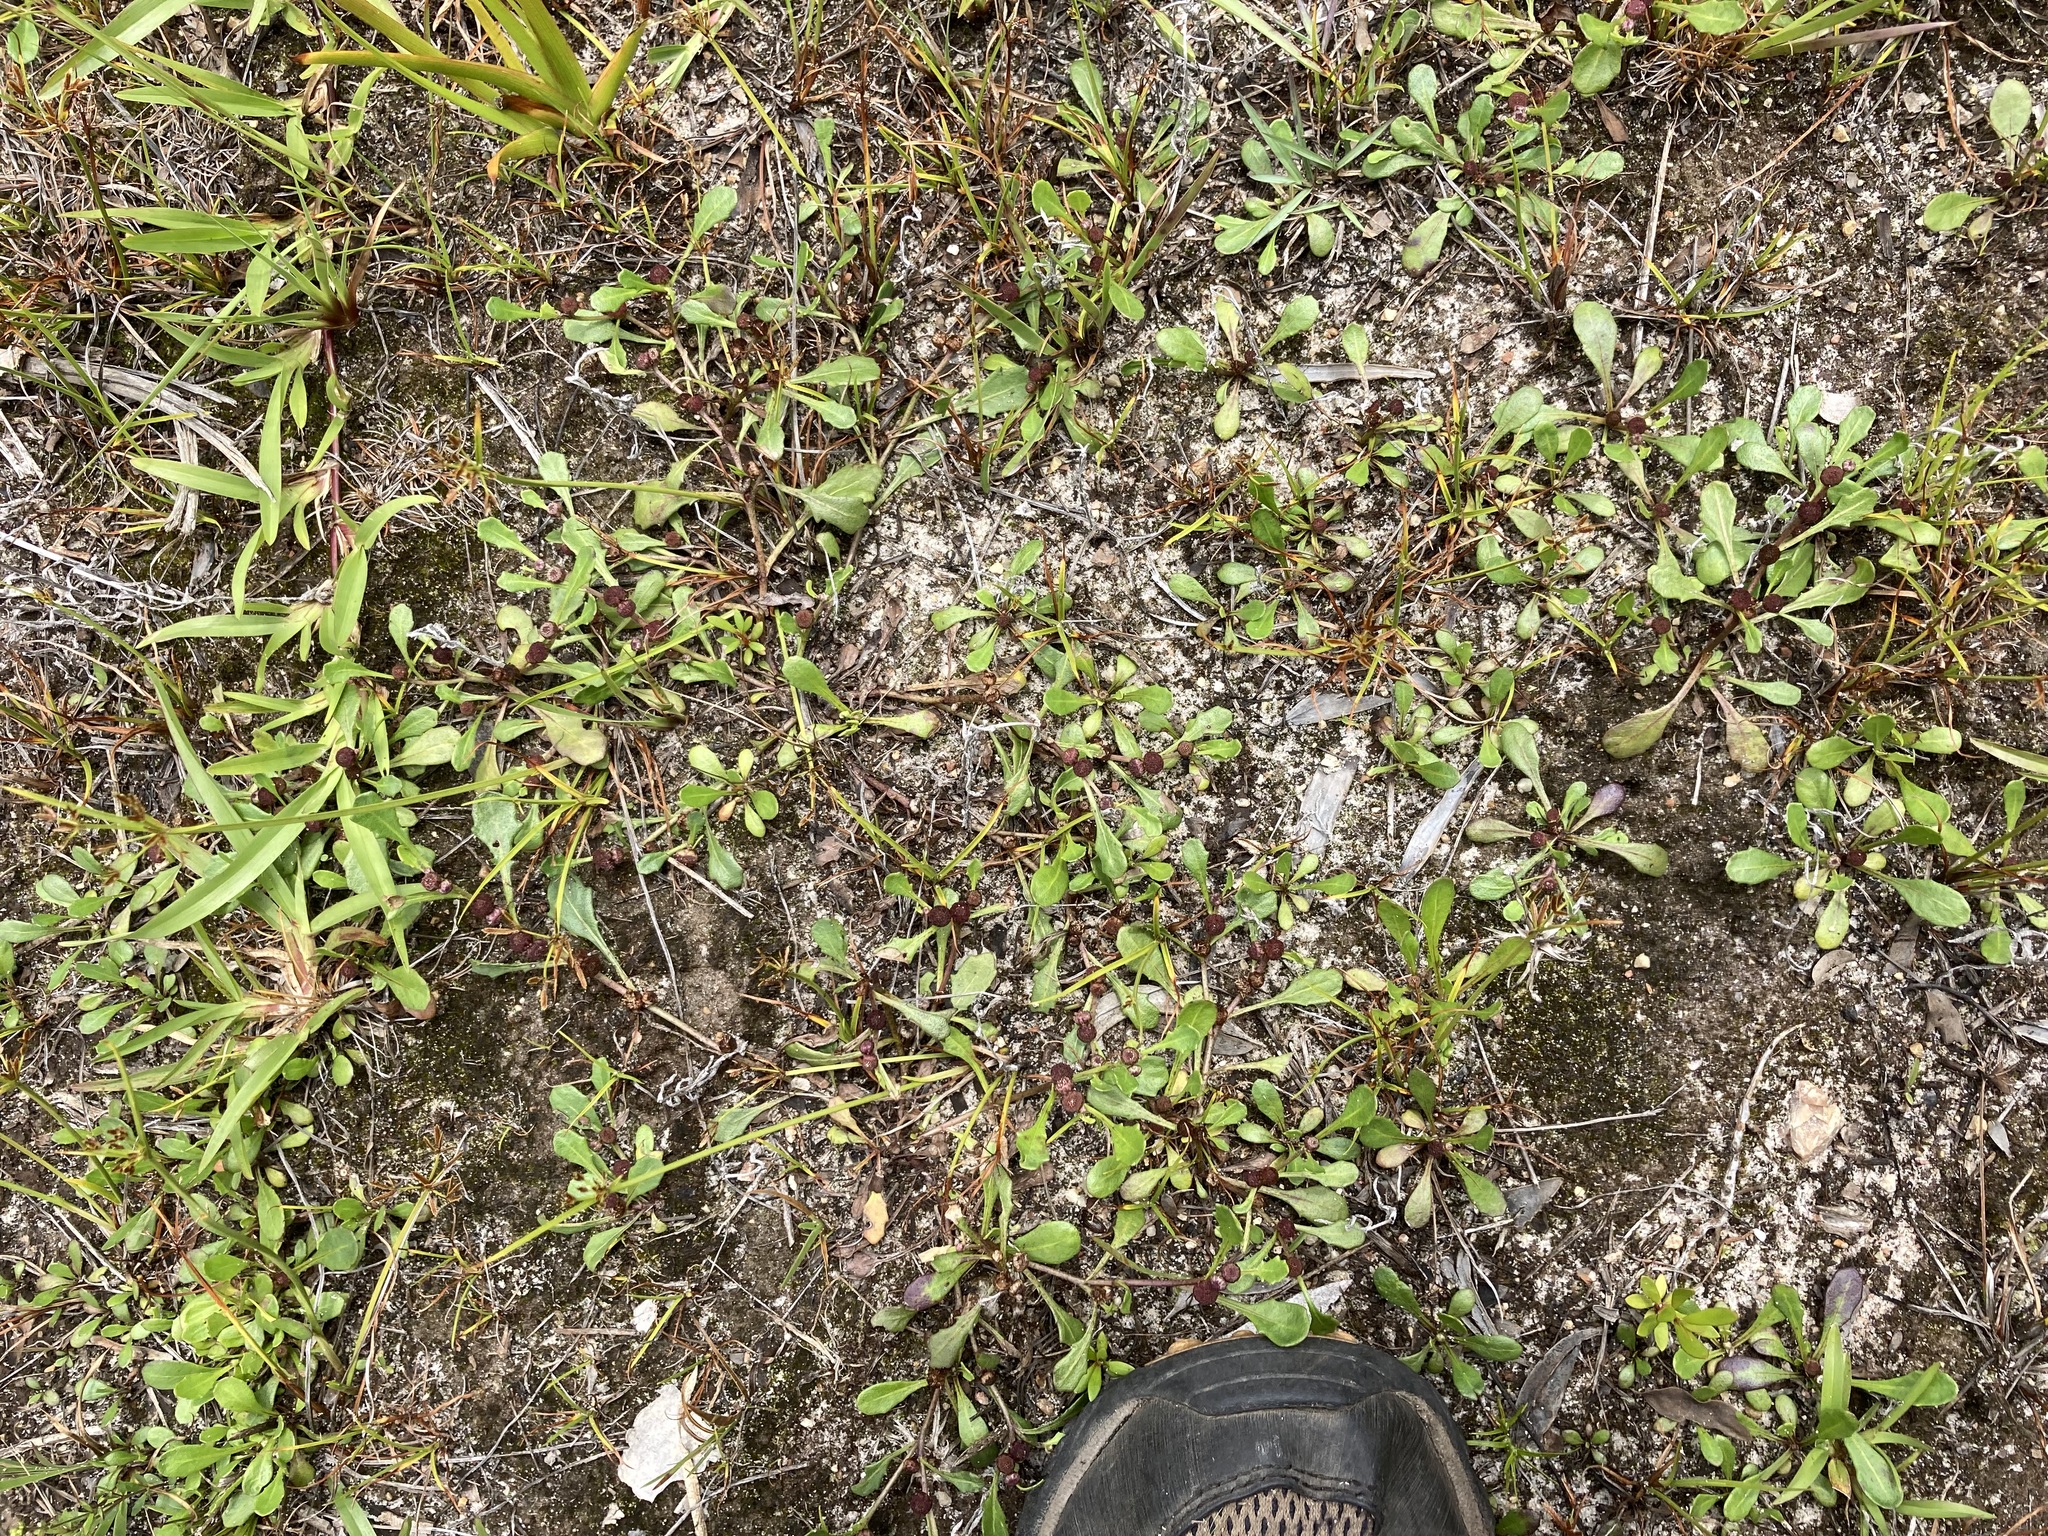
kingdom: Plantae
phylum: Tracheophyta
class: Magnoliopsida
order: Asterales
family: Asteraceae
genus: Sphaeromorphaea
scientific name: Sphaeromorphaea australis
